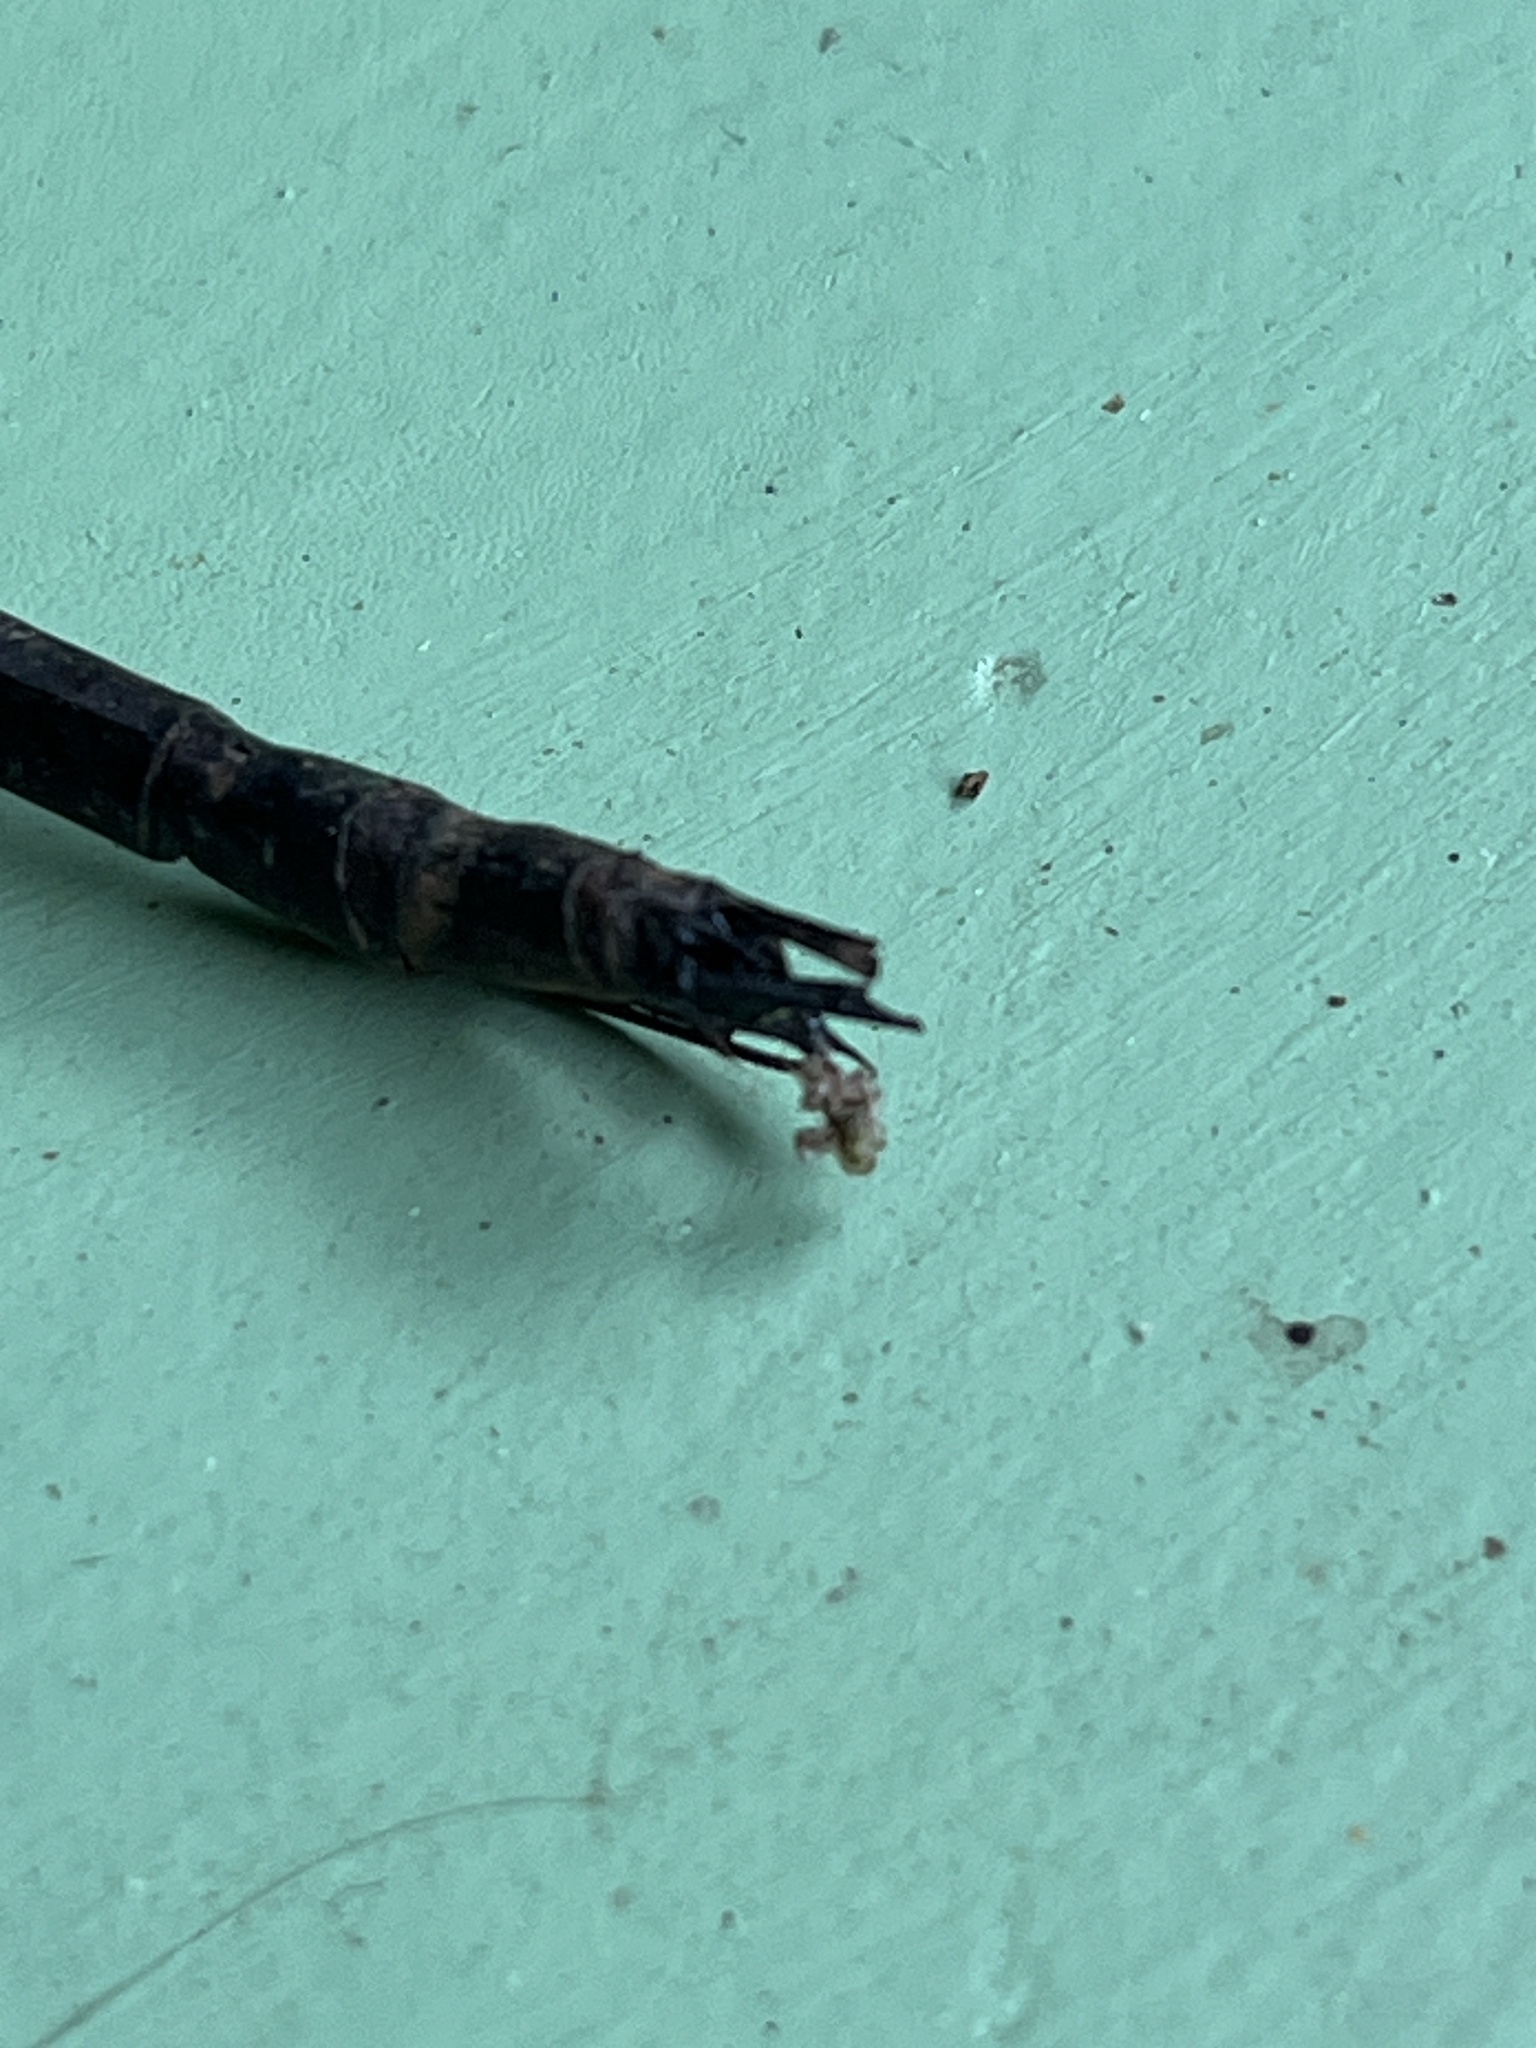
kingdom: Animalia
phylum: Arthropoda
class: Insecta
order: Odonata
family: Aeshnidae
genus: Gynacantha
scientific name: Gynacantha gracilis
